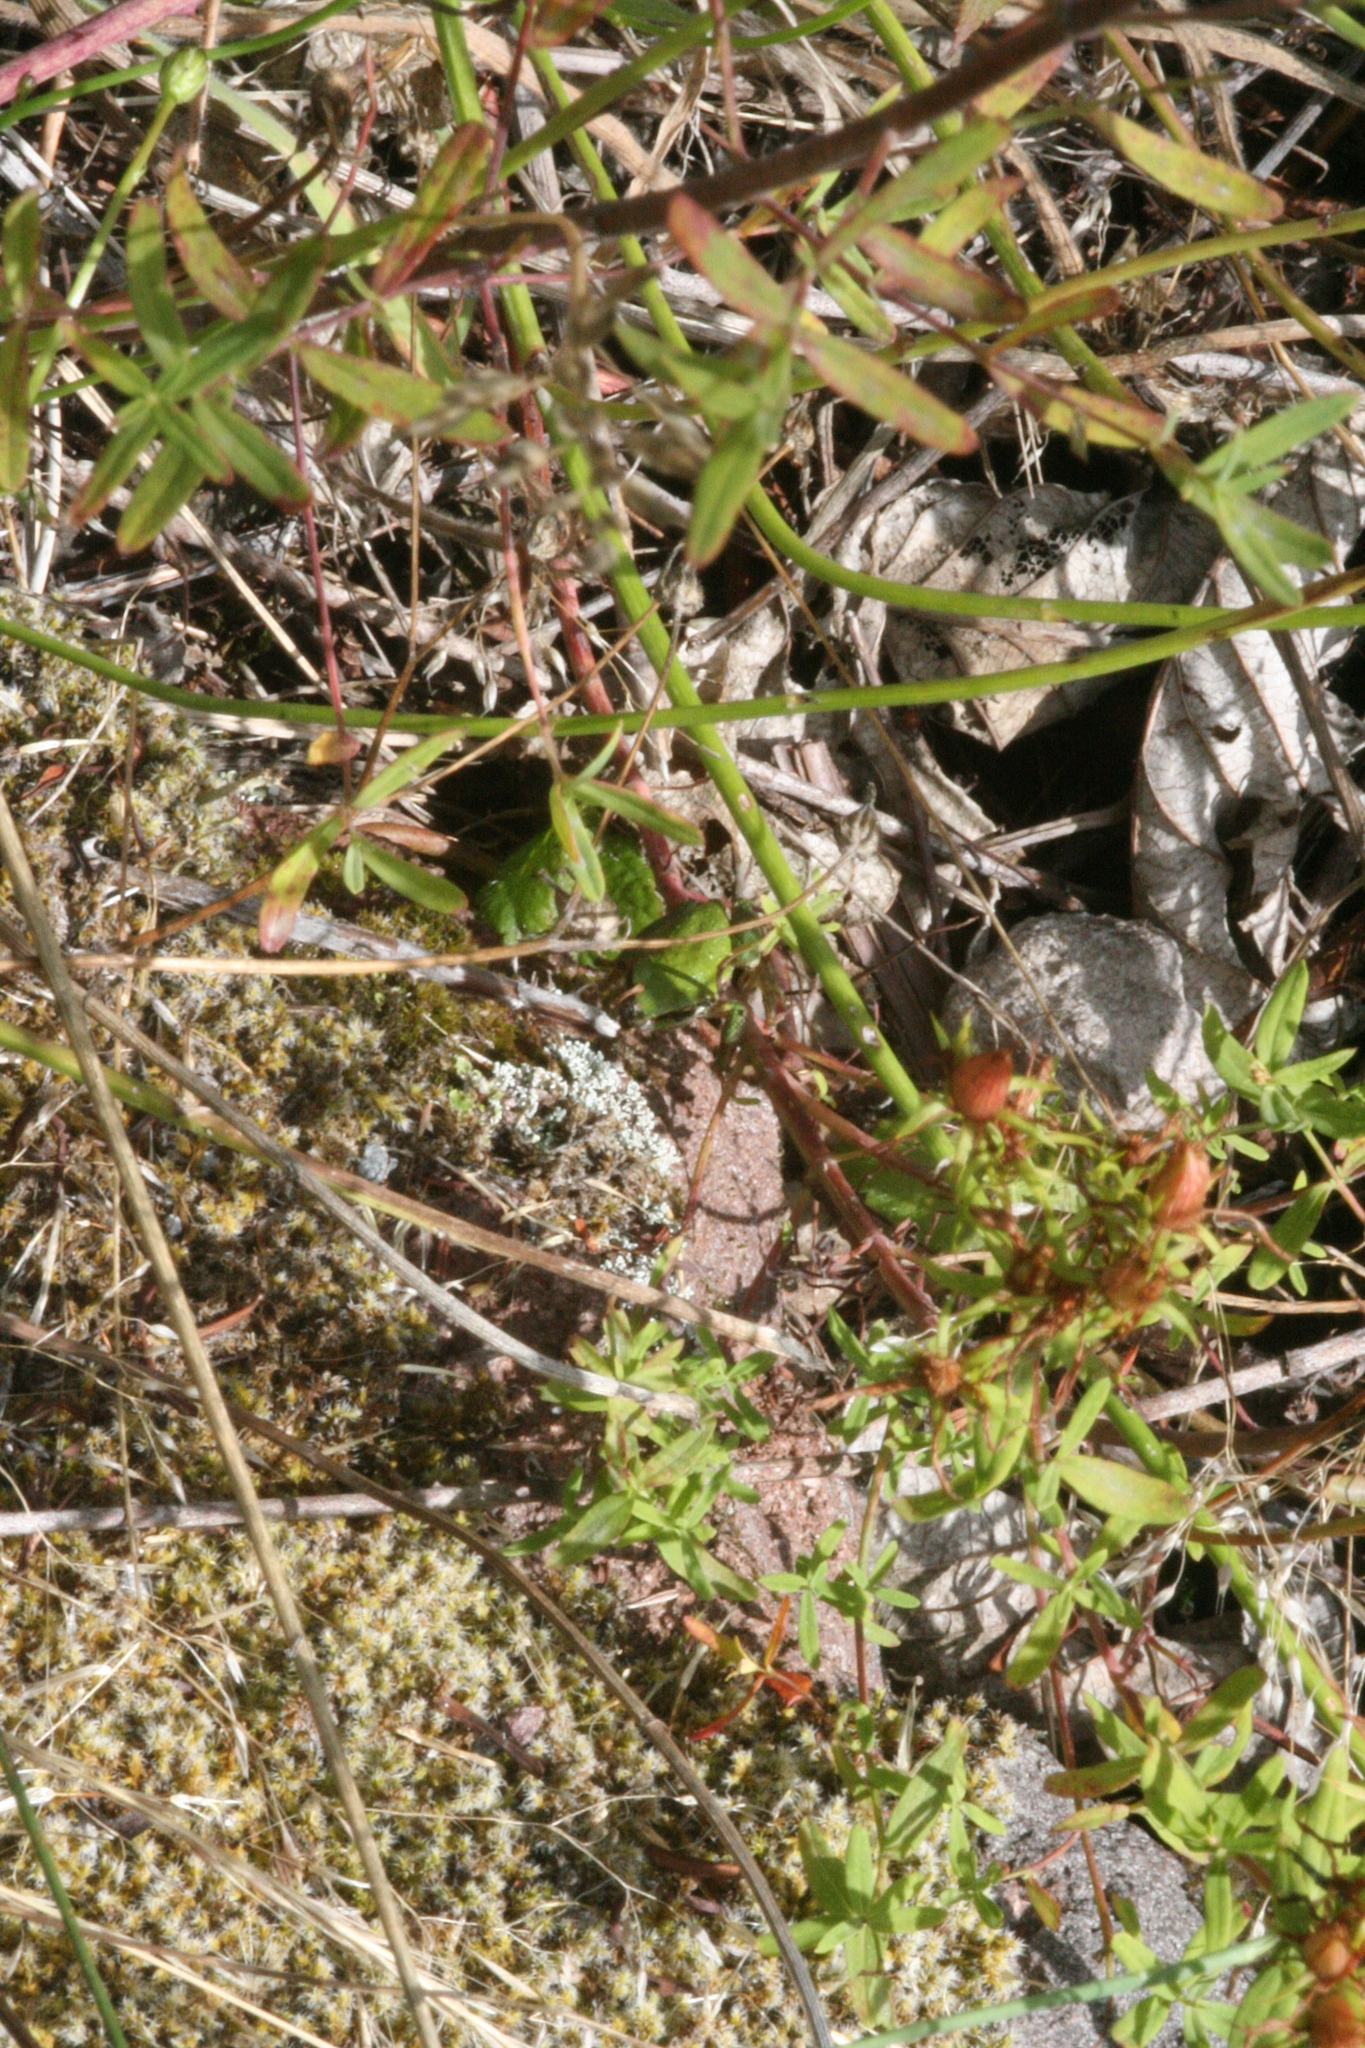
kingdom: Animalia
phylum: Chordata
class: Amphibia
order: Anura
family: Hylidae
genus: Pseudacris
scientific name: Pseudacris regilla
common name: Pacific chorus frog
